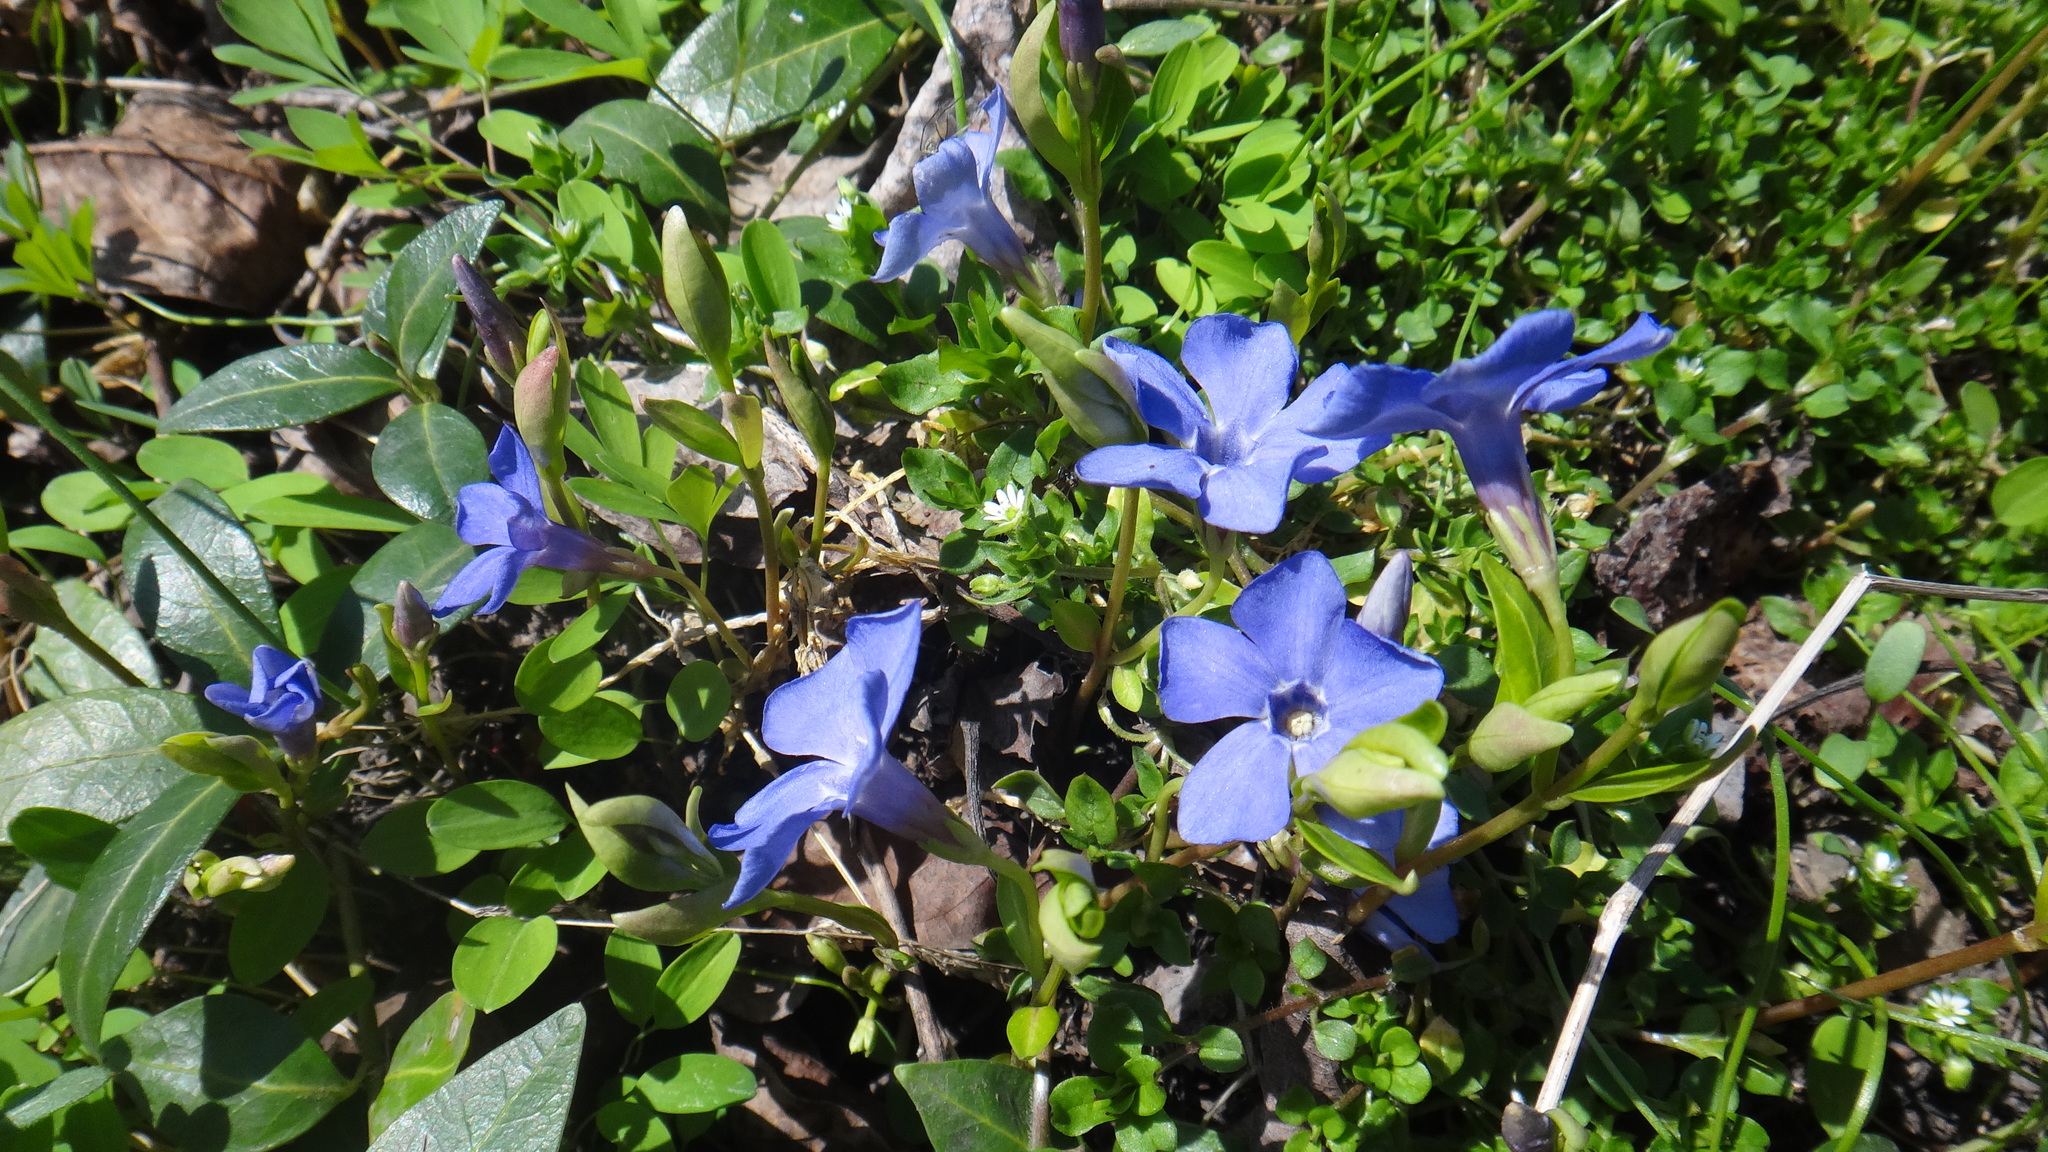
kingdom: Plantae
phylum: Tracheophyta
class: Magnoliopsida
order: Gentianales
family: Apocynaceae
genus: Vinca
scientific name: Vinca minor
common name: Lesser periwinkle
